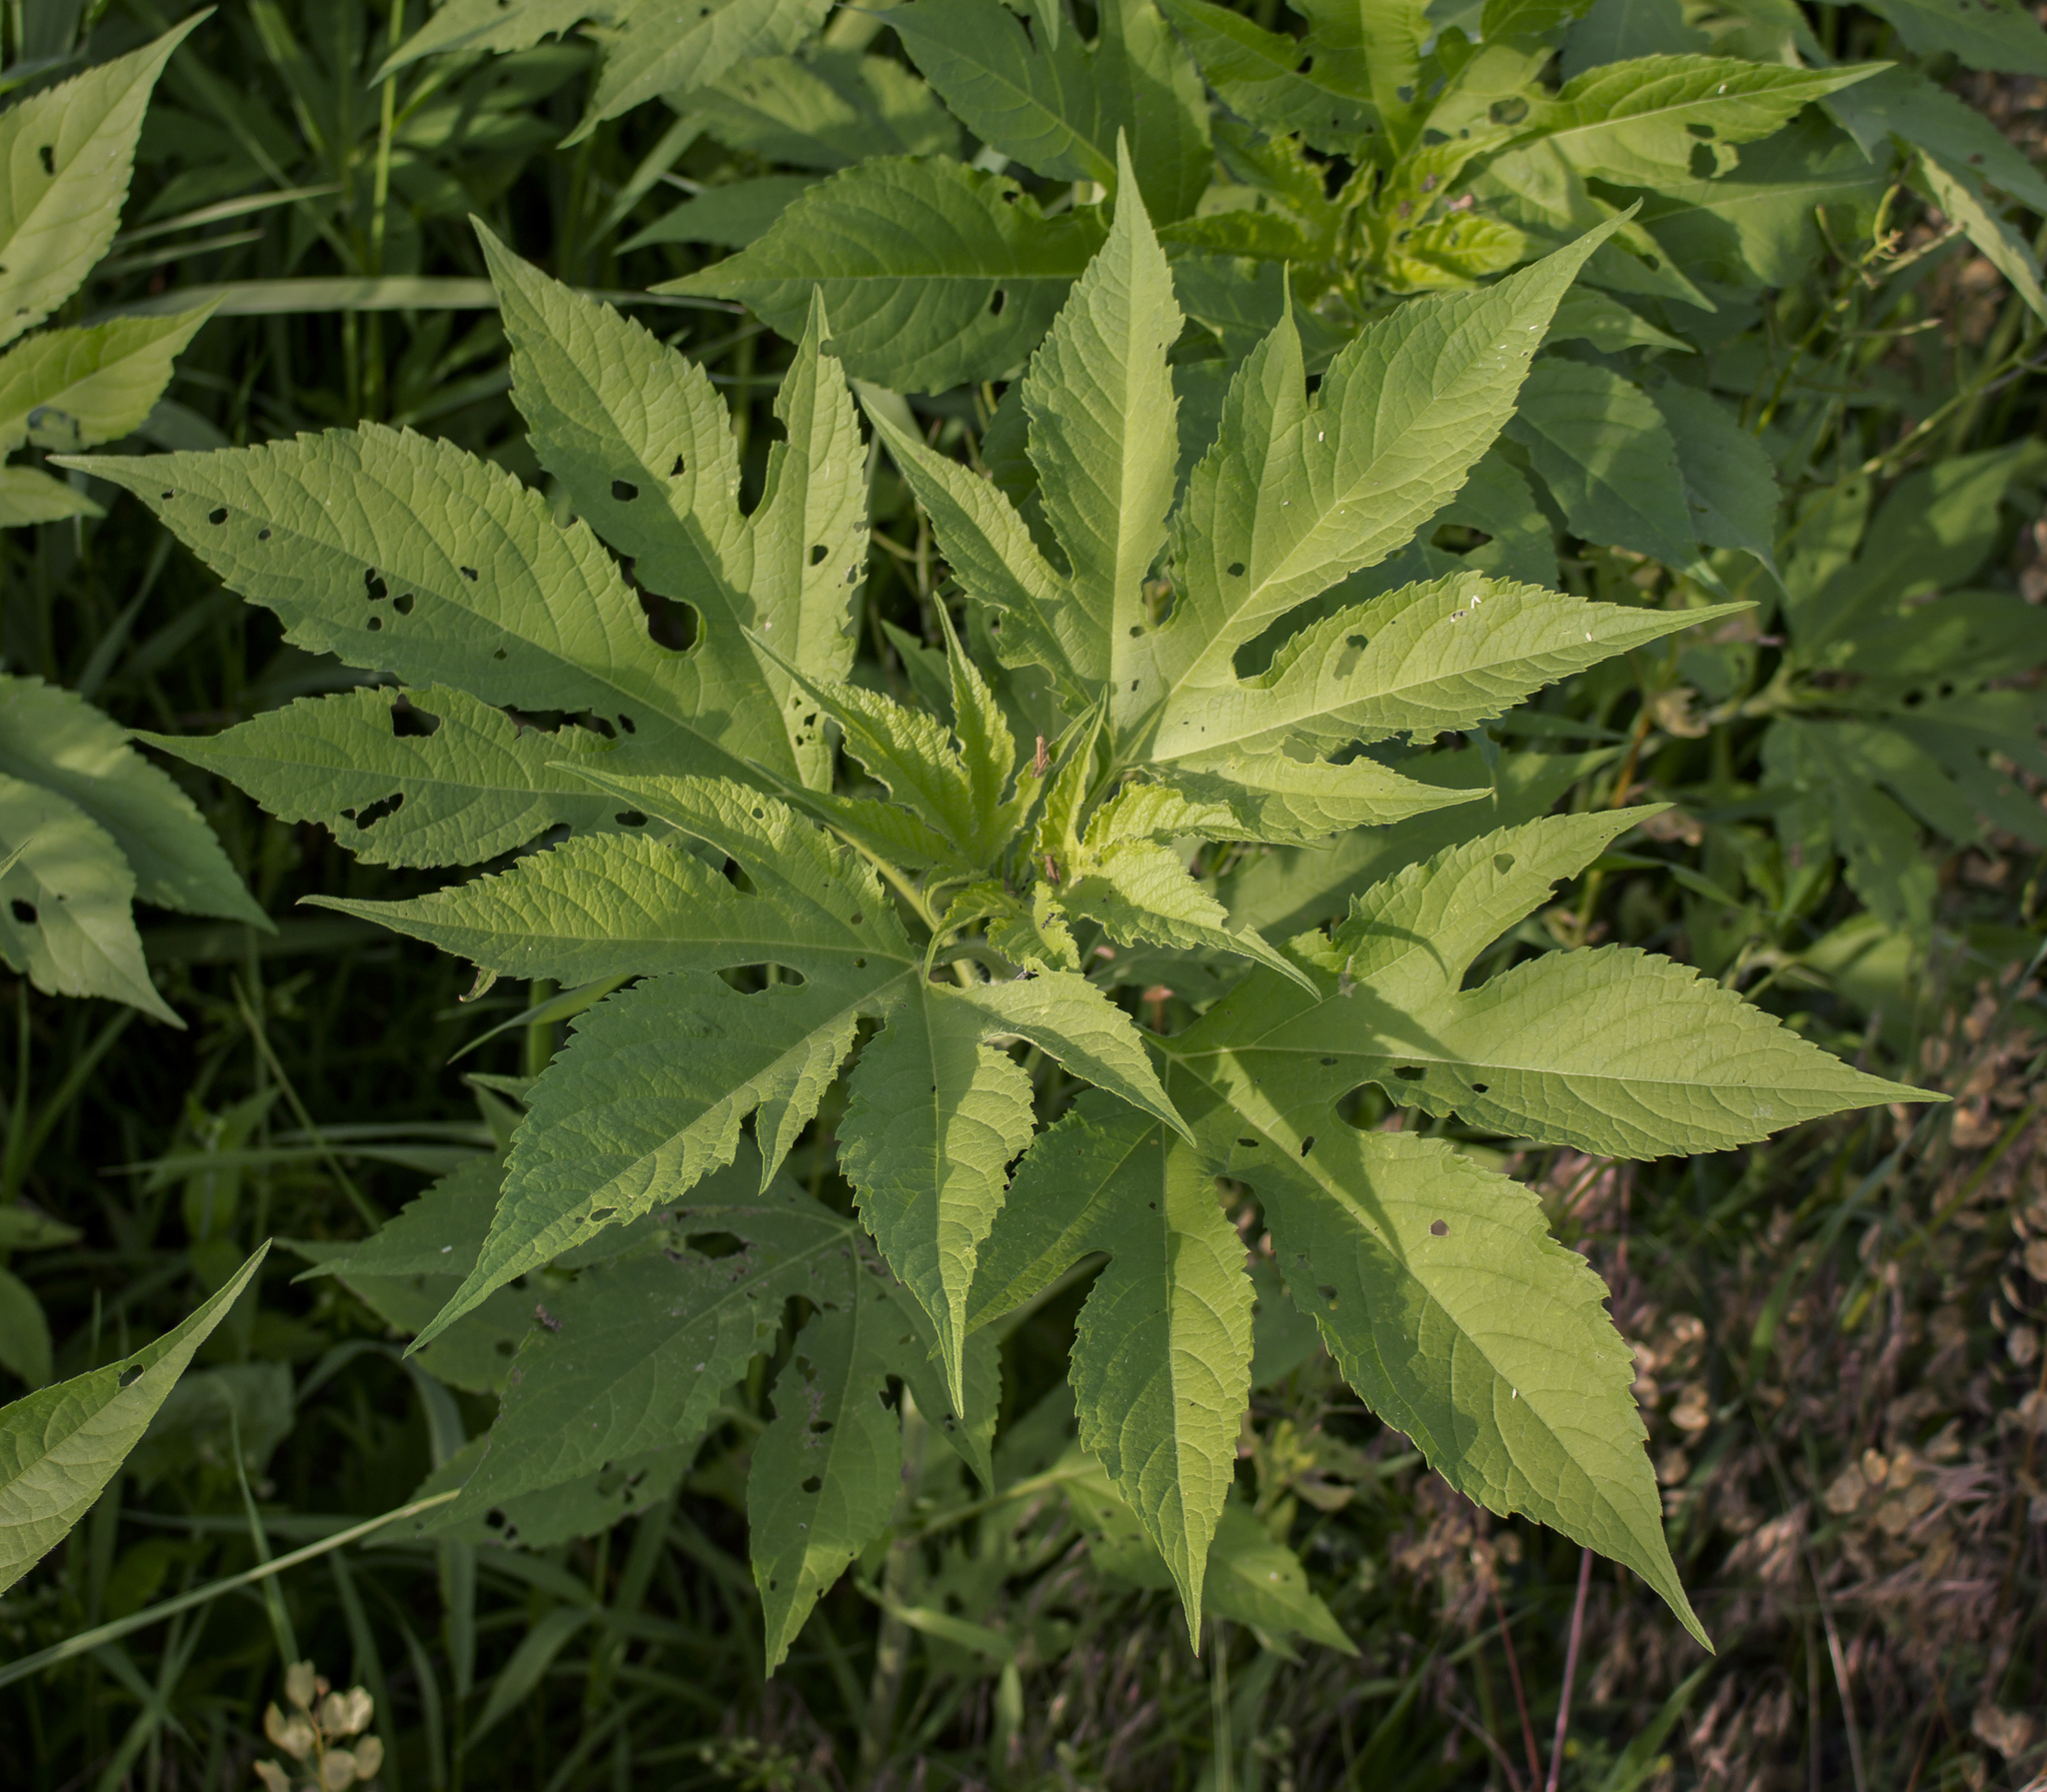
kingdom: Plantae
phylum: Tracheophyta
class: Magnoliopsida
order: Asterales
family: Asteraceae
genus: Ambrosia
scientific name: Ambrosia trifida
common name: Giant ragweed
